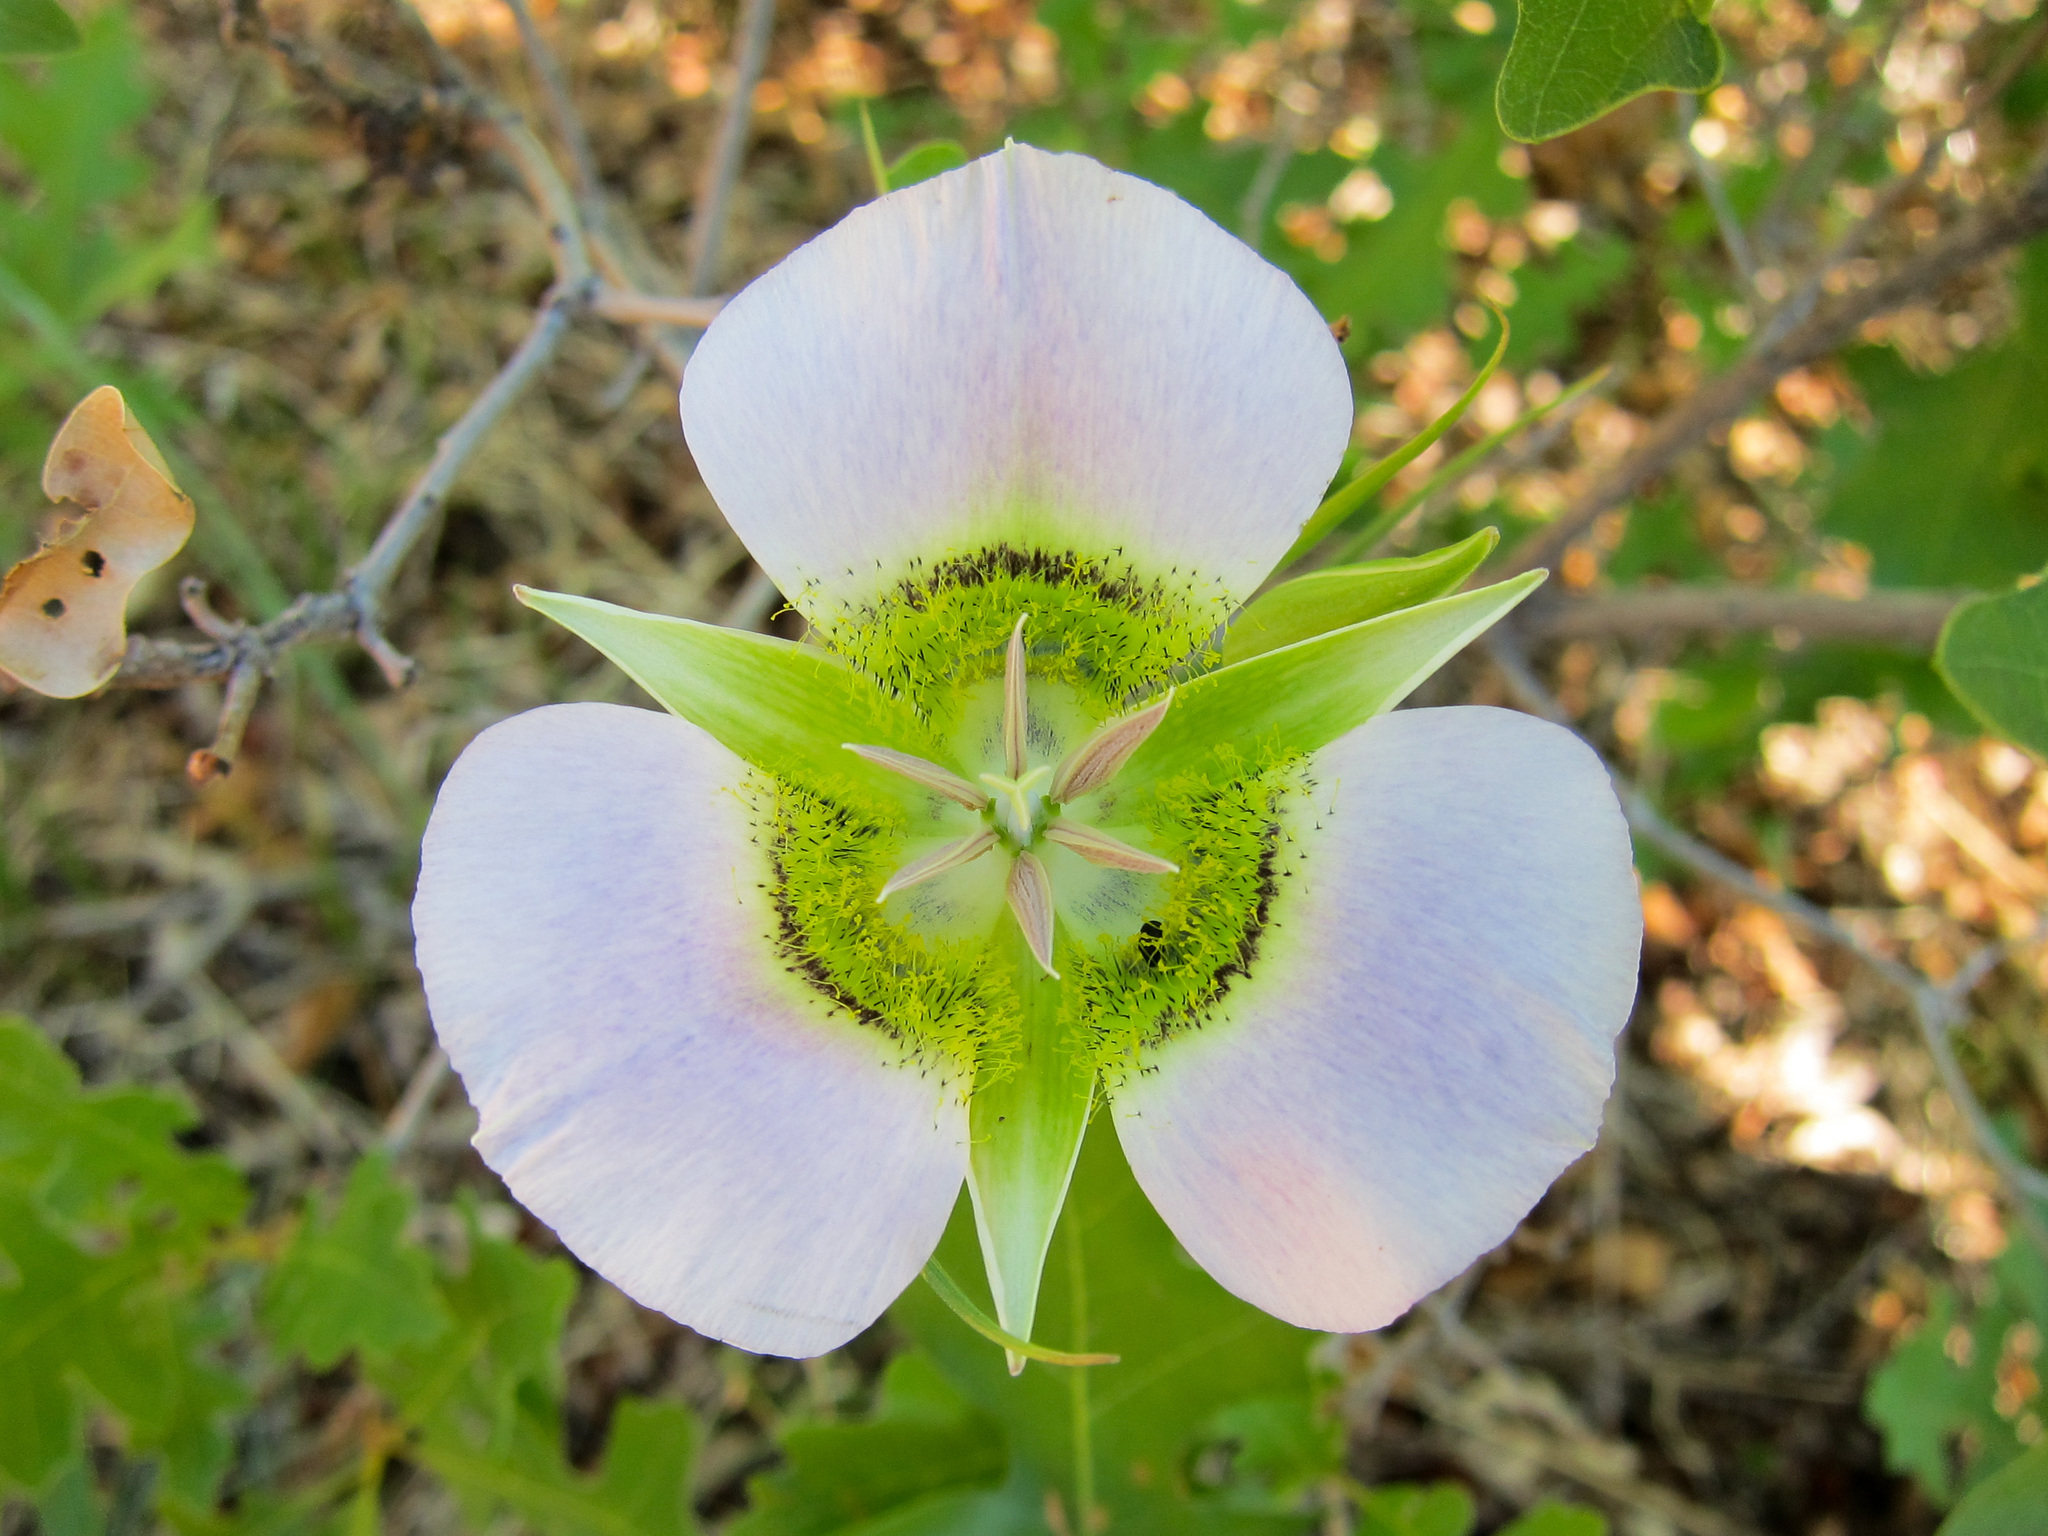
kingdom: Plantae
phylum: Tracheophyta
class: Liliopsida
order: Liliales
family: Liliaceae
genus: Calochortus
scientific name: Calochortus gunnisonii
